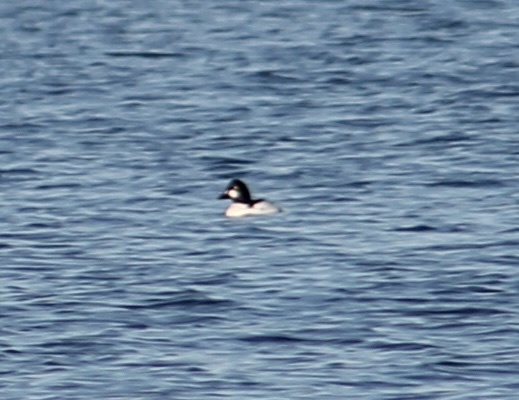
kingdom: Animalia
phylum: Chordata
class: Aves
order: Anseriformes
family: Anatidae
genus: Bucephala
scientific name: Bucephala clangula
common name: Common goldeneye
